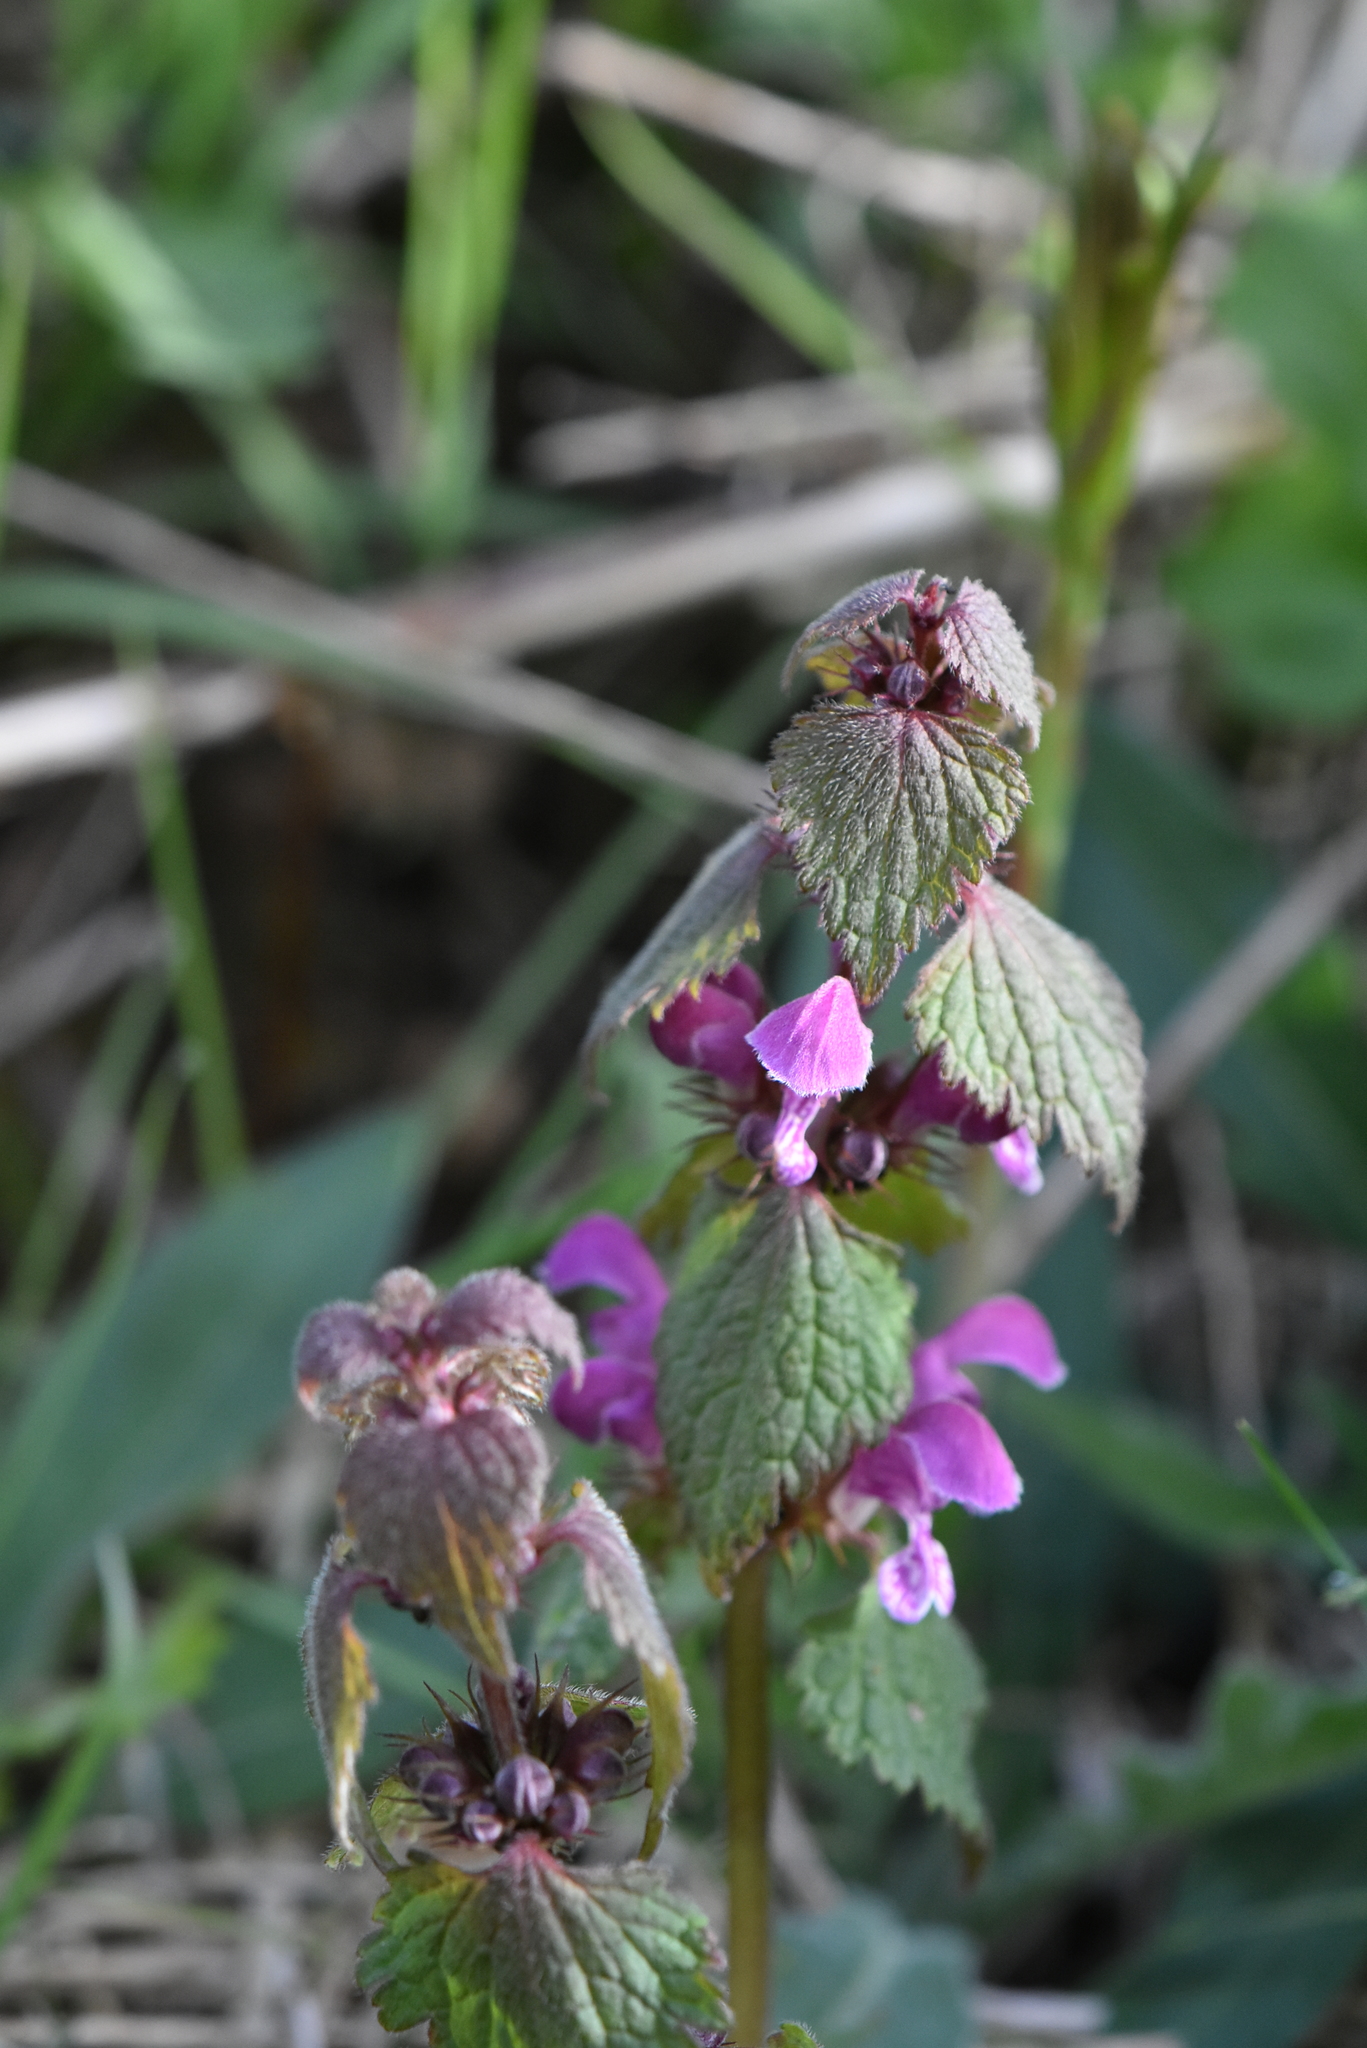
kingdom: Plantae
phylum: Tracheophyta
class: Magnoliopsida
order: Lamiales
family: Lamiaceae
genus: Lamium
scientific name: Lamium maculatum
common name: Spotted dead-nettle
